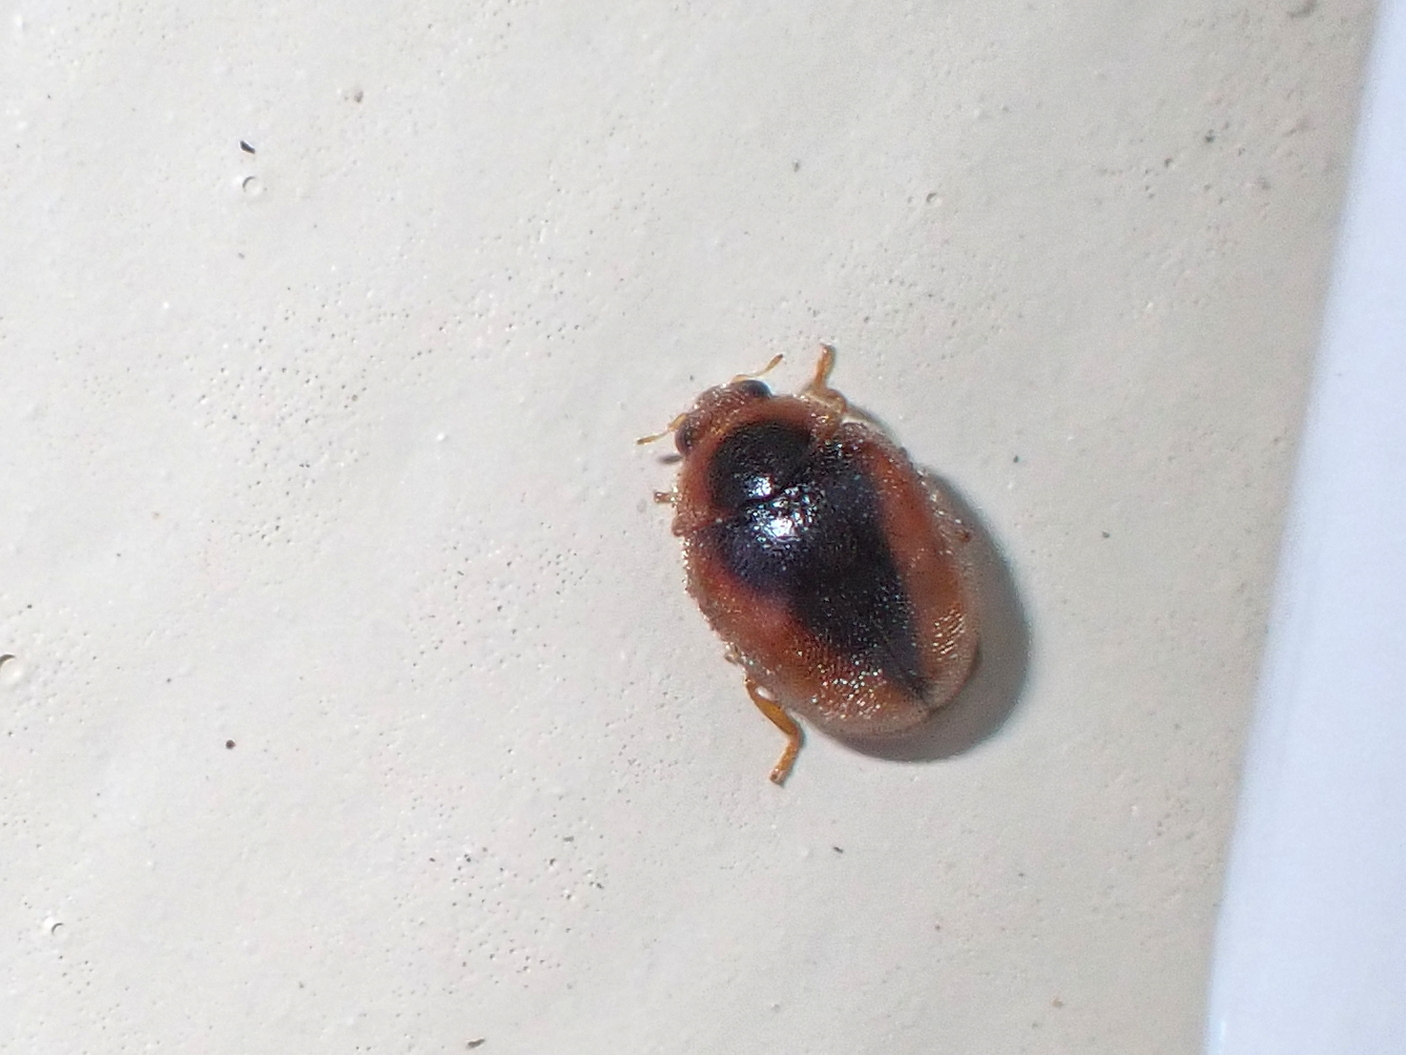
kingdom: Animalia
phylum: Arthropoda
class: Insecta
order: Coleoptera
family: Coccinellidae
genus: Scymnus
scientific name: Scymnus loewii
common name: Dusky lady beetle
